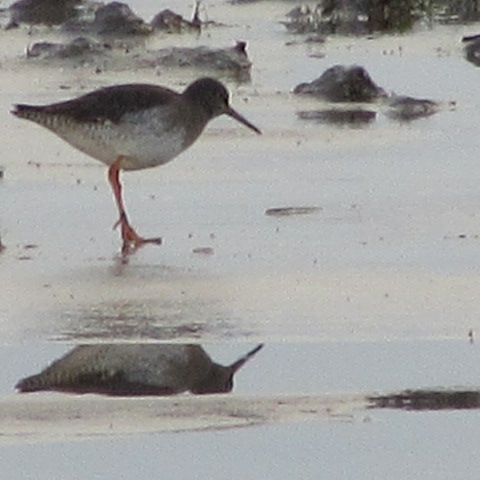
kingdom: Animalia
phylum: Chordata
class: Aves
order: Charadriiformes
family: Scolopacidae
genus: Tringa
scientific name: Tringa totanus
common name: Common redshank
